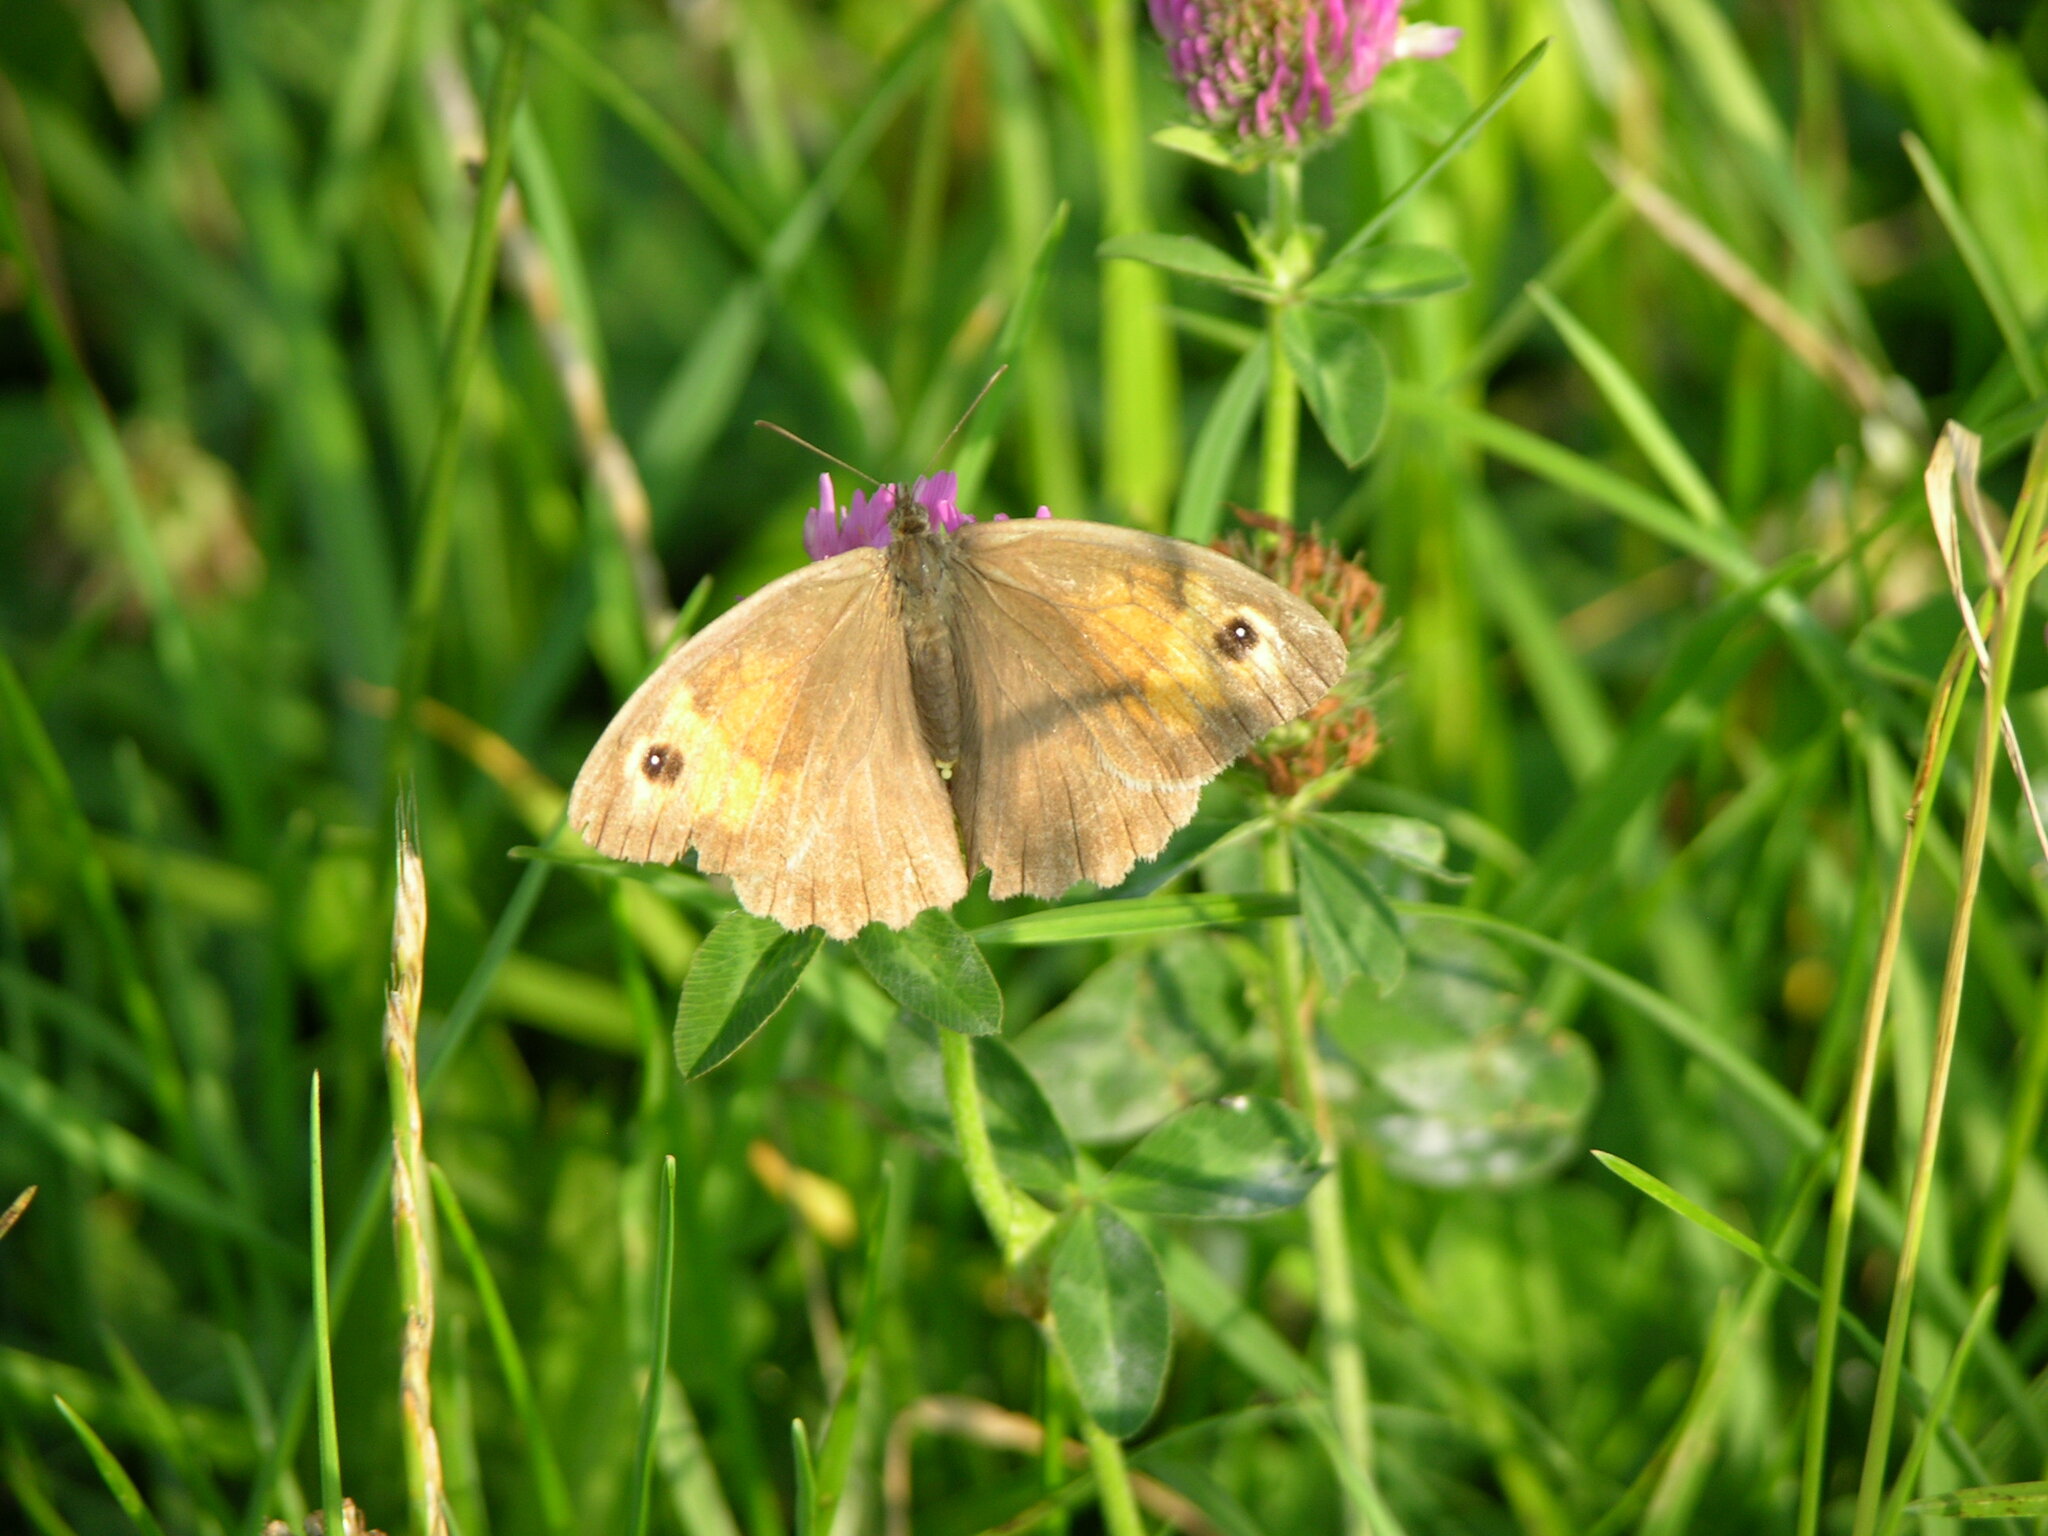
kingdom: Animalia
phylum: Arthropoda
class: Insecta
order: Lepidoptera
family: Nymphalidae
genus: Maniola
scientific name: Maniola jurtina
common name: Meadow brown
